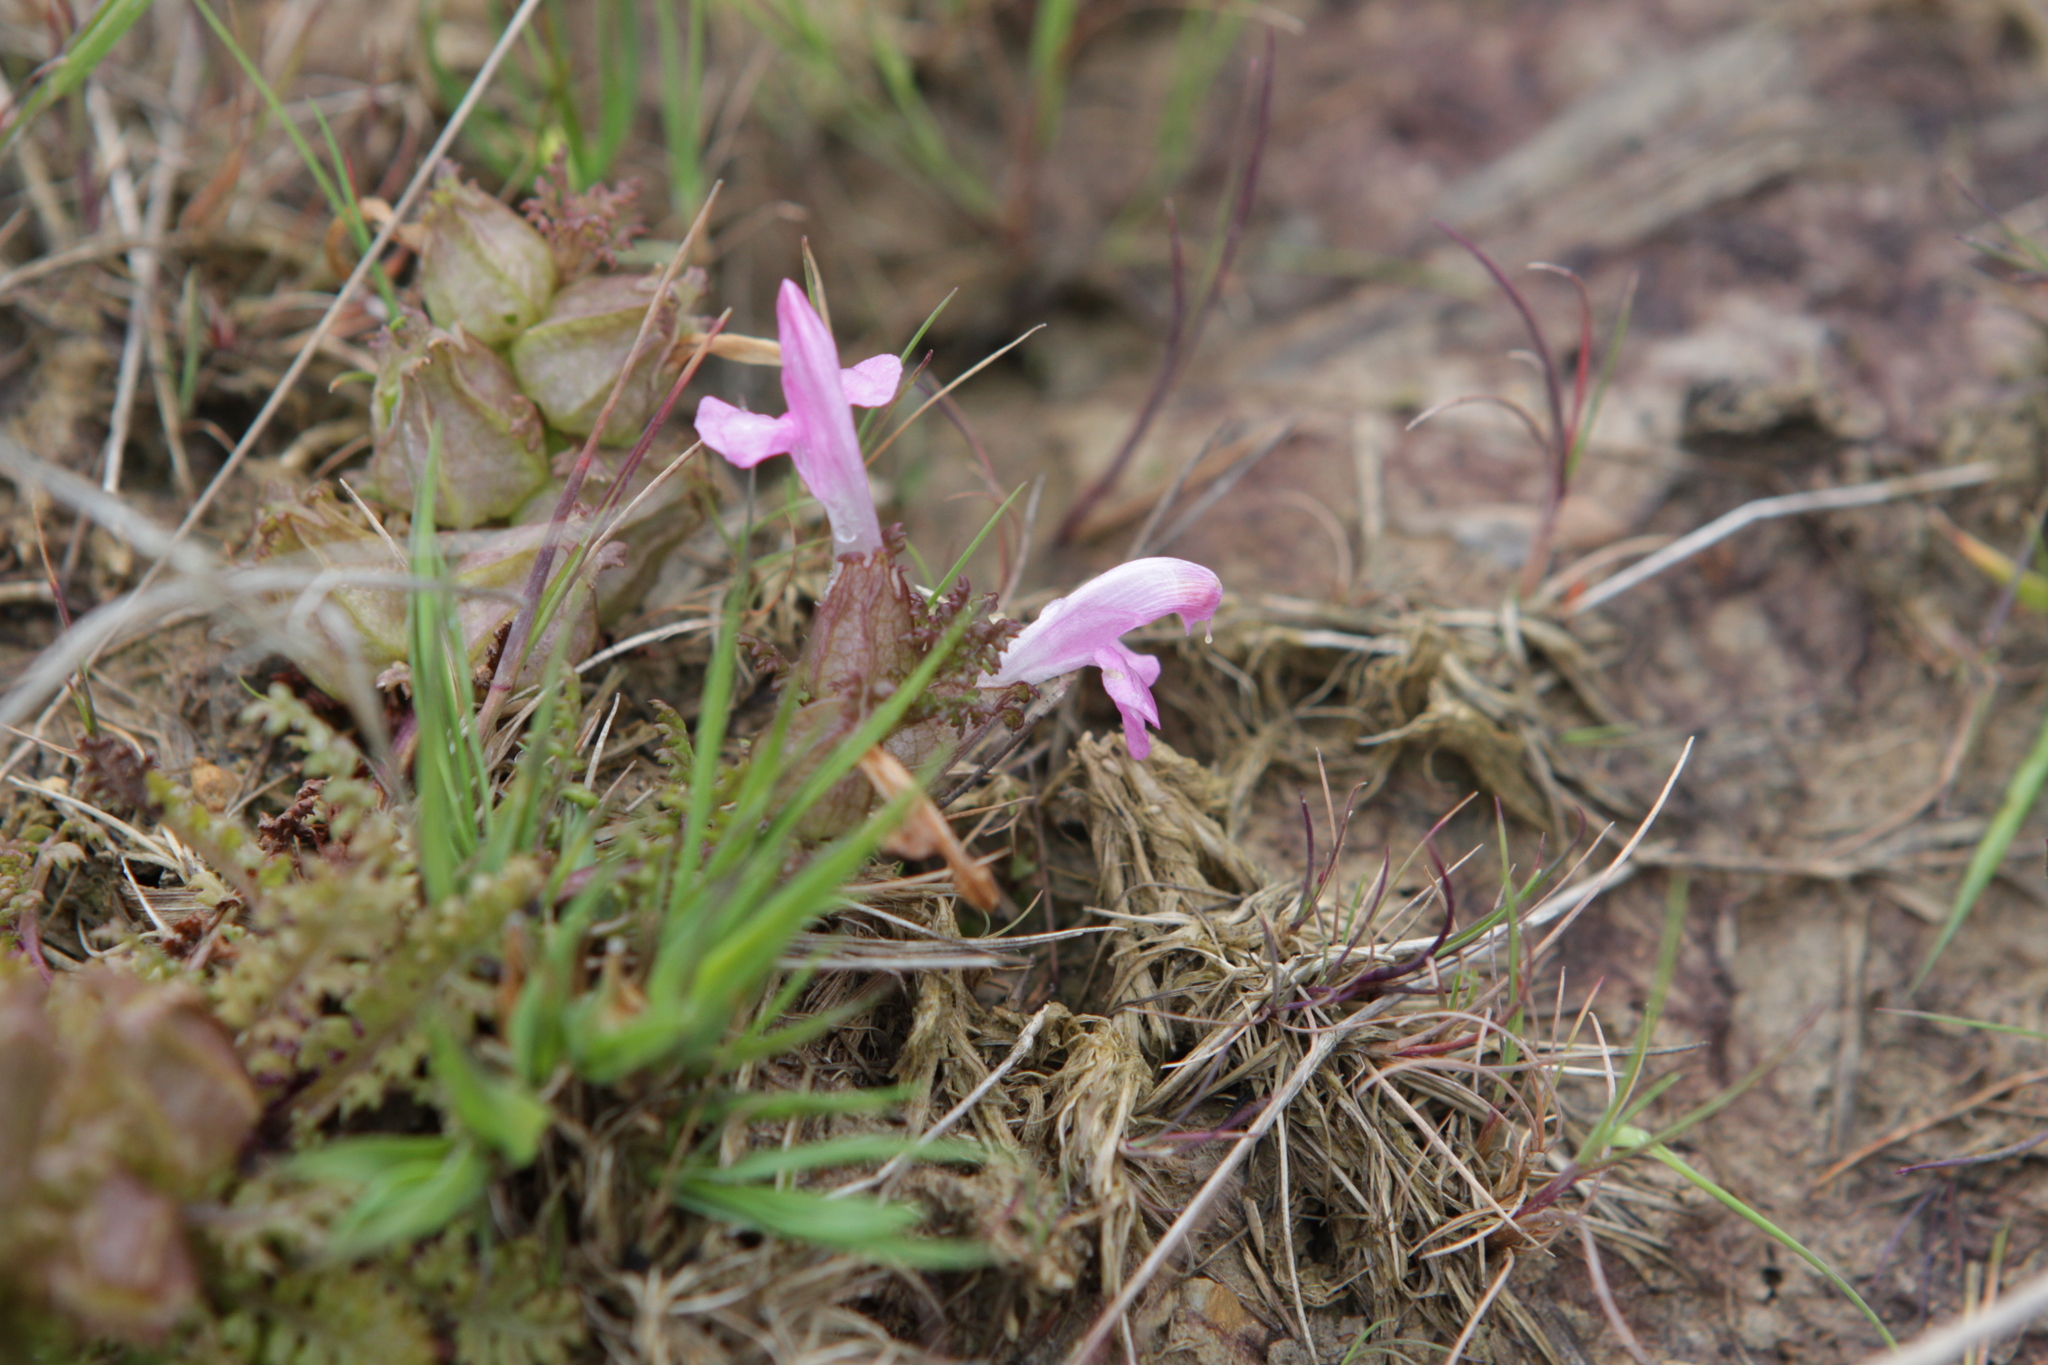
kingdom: Plantae
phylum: Tracheophyta
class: Magnoliopsida
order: Lamiales
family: Orobanchaceae
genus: Pedicularis
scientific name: Pedicularis sylvatica
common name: Lousewort
